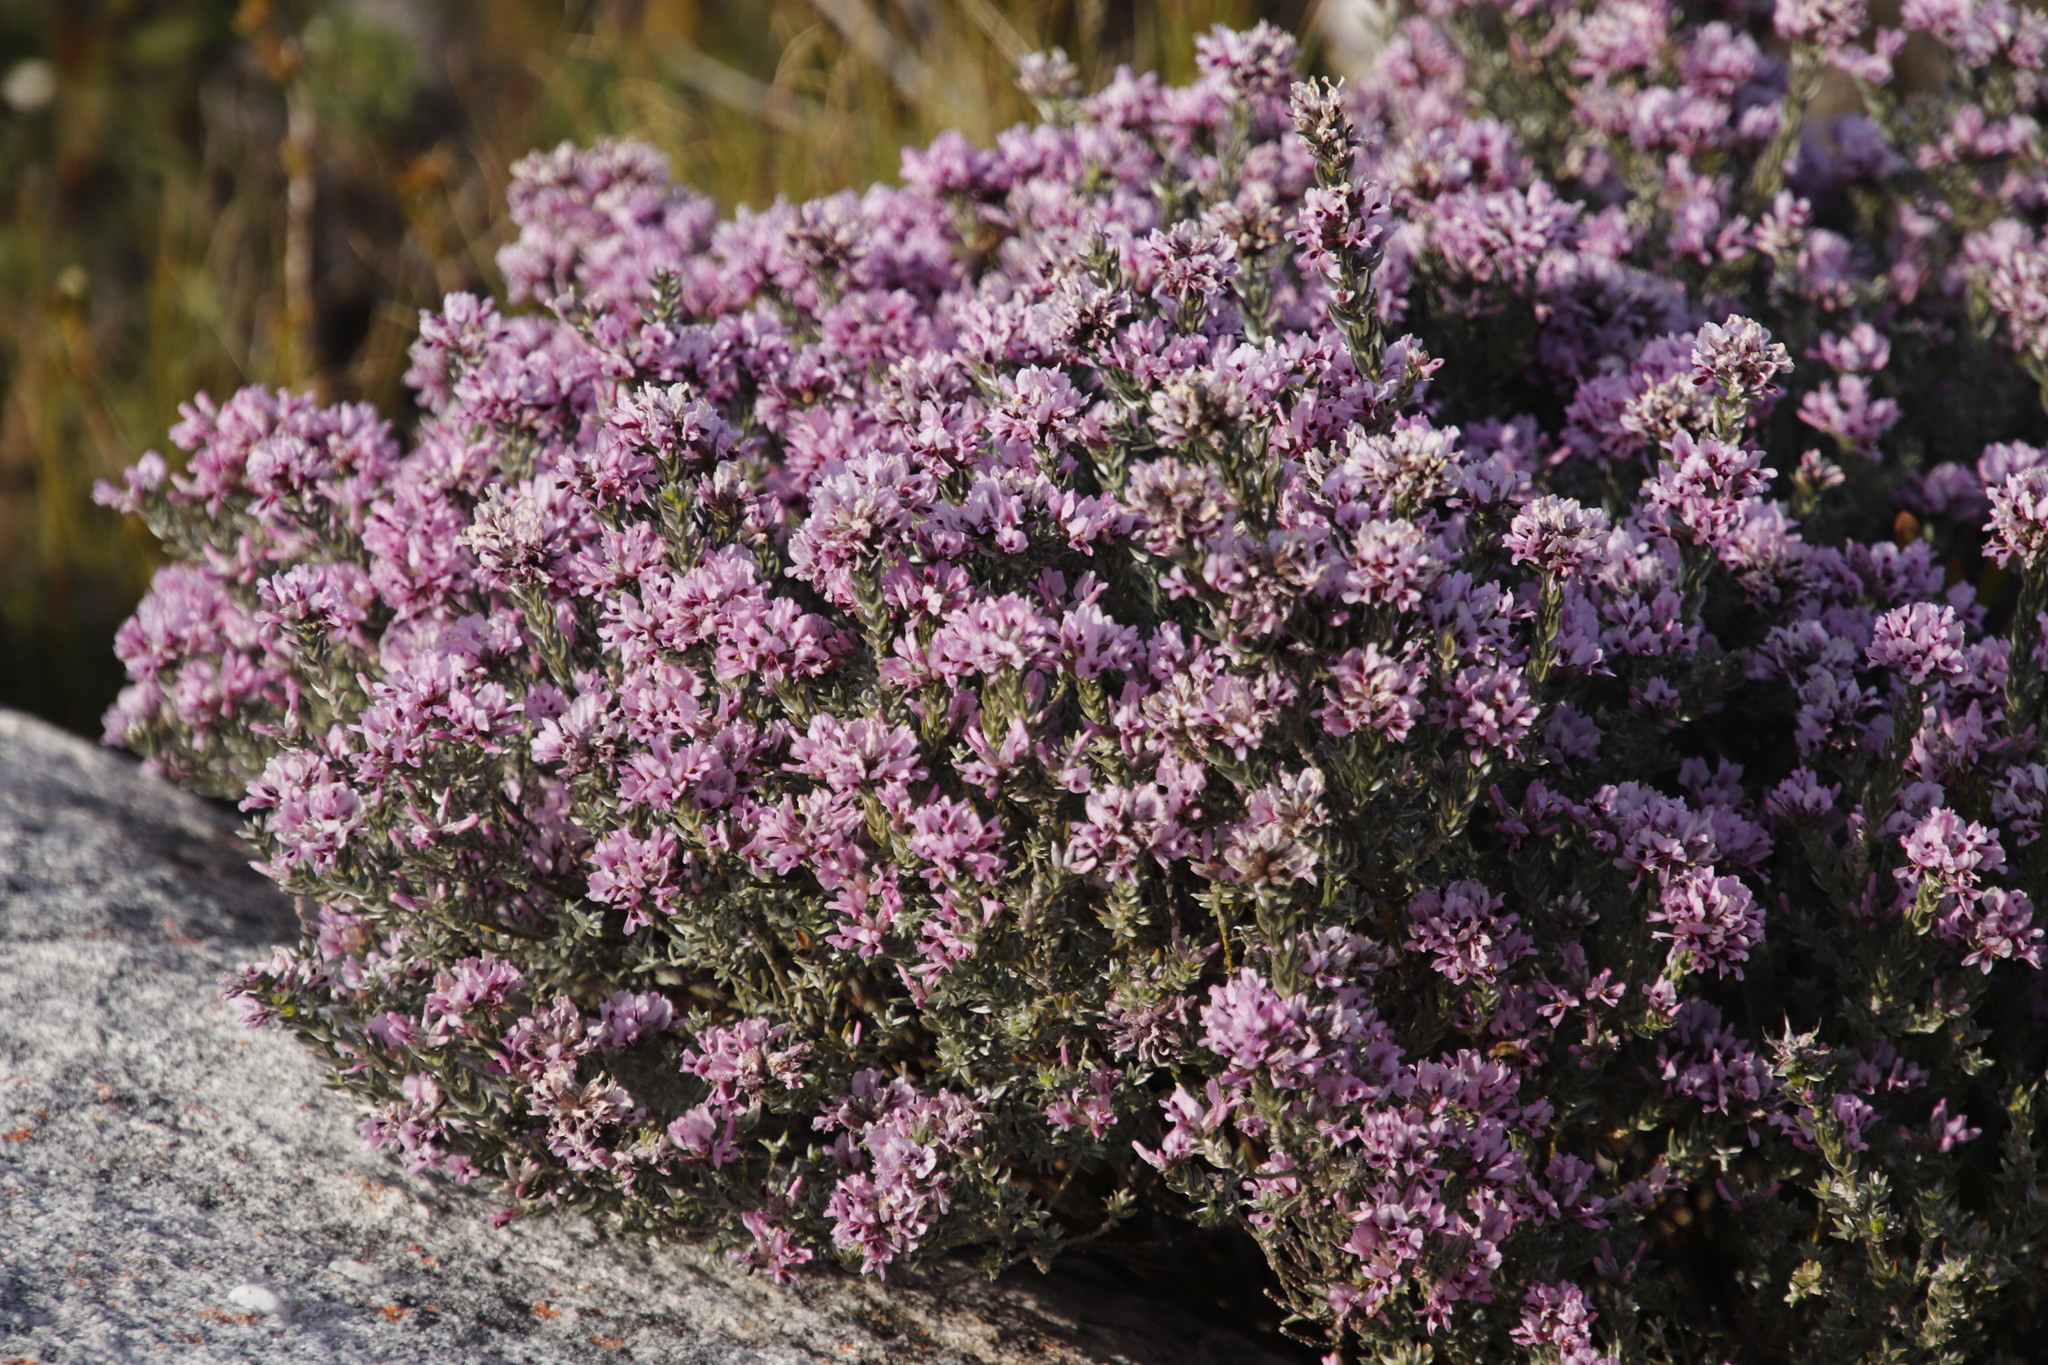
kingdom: Plantae
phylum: Tracheophyta
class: Magnoliopsida
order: Fabales
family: Fabaceae
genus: Amphithalea
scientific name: Amphithalea ericifolia
